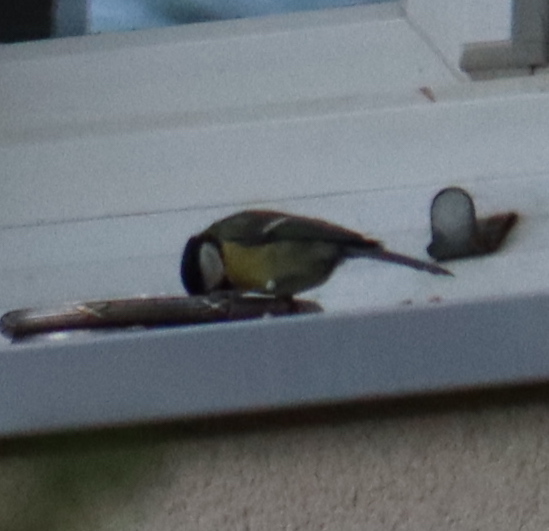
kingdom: Animalia
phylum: Chordata
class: Aves
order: Passeriformes
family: Paridae
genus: Parus
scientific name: Parus major
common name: Great tit
